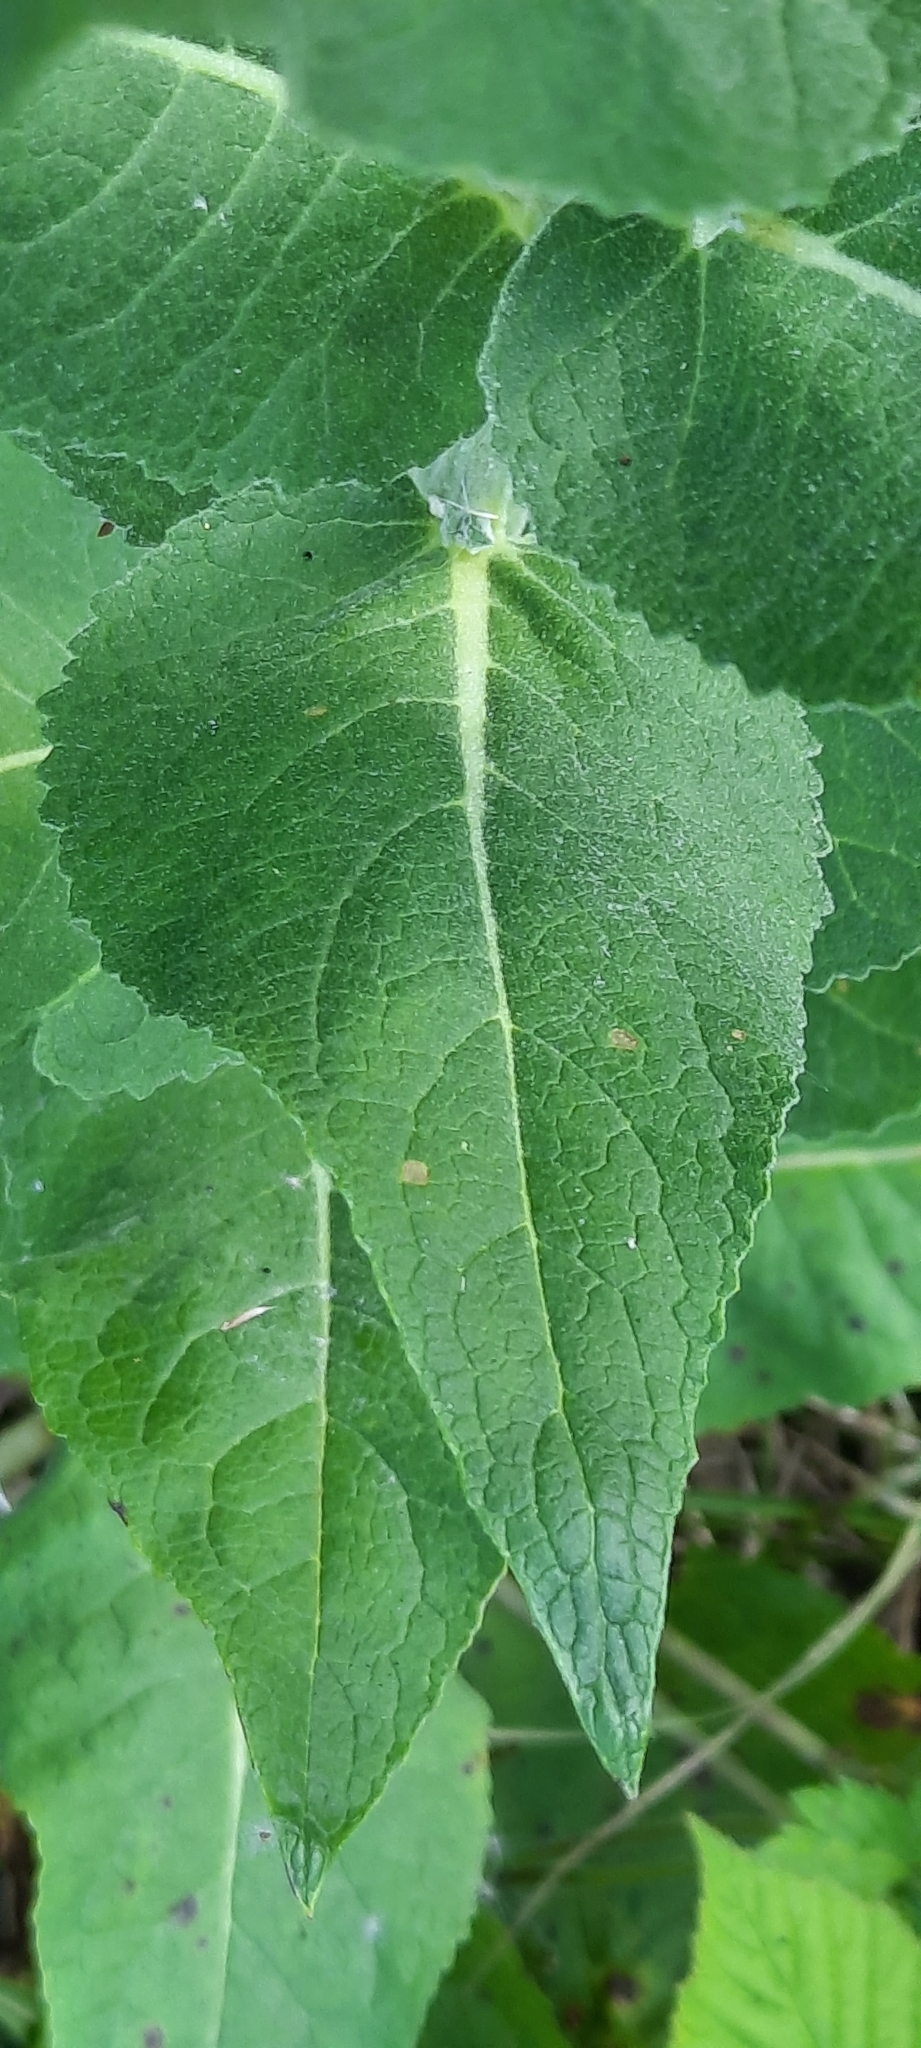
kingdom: Plantae
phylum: Tracheophyta
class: Magnoliopsida
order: Lamiales
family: Scrophulariaceae
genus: Verbascum
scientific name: Verbascum lychnitis
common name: White mullein
